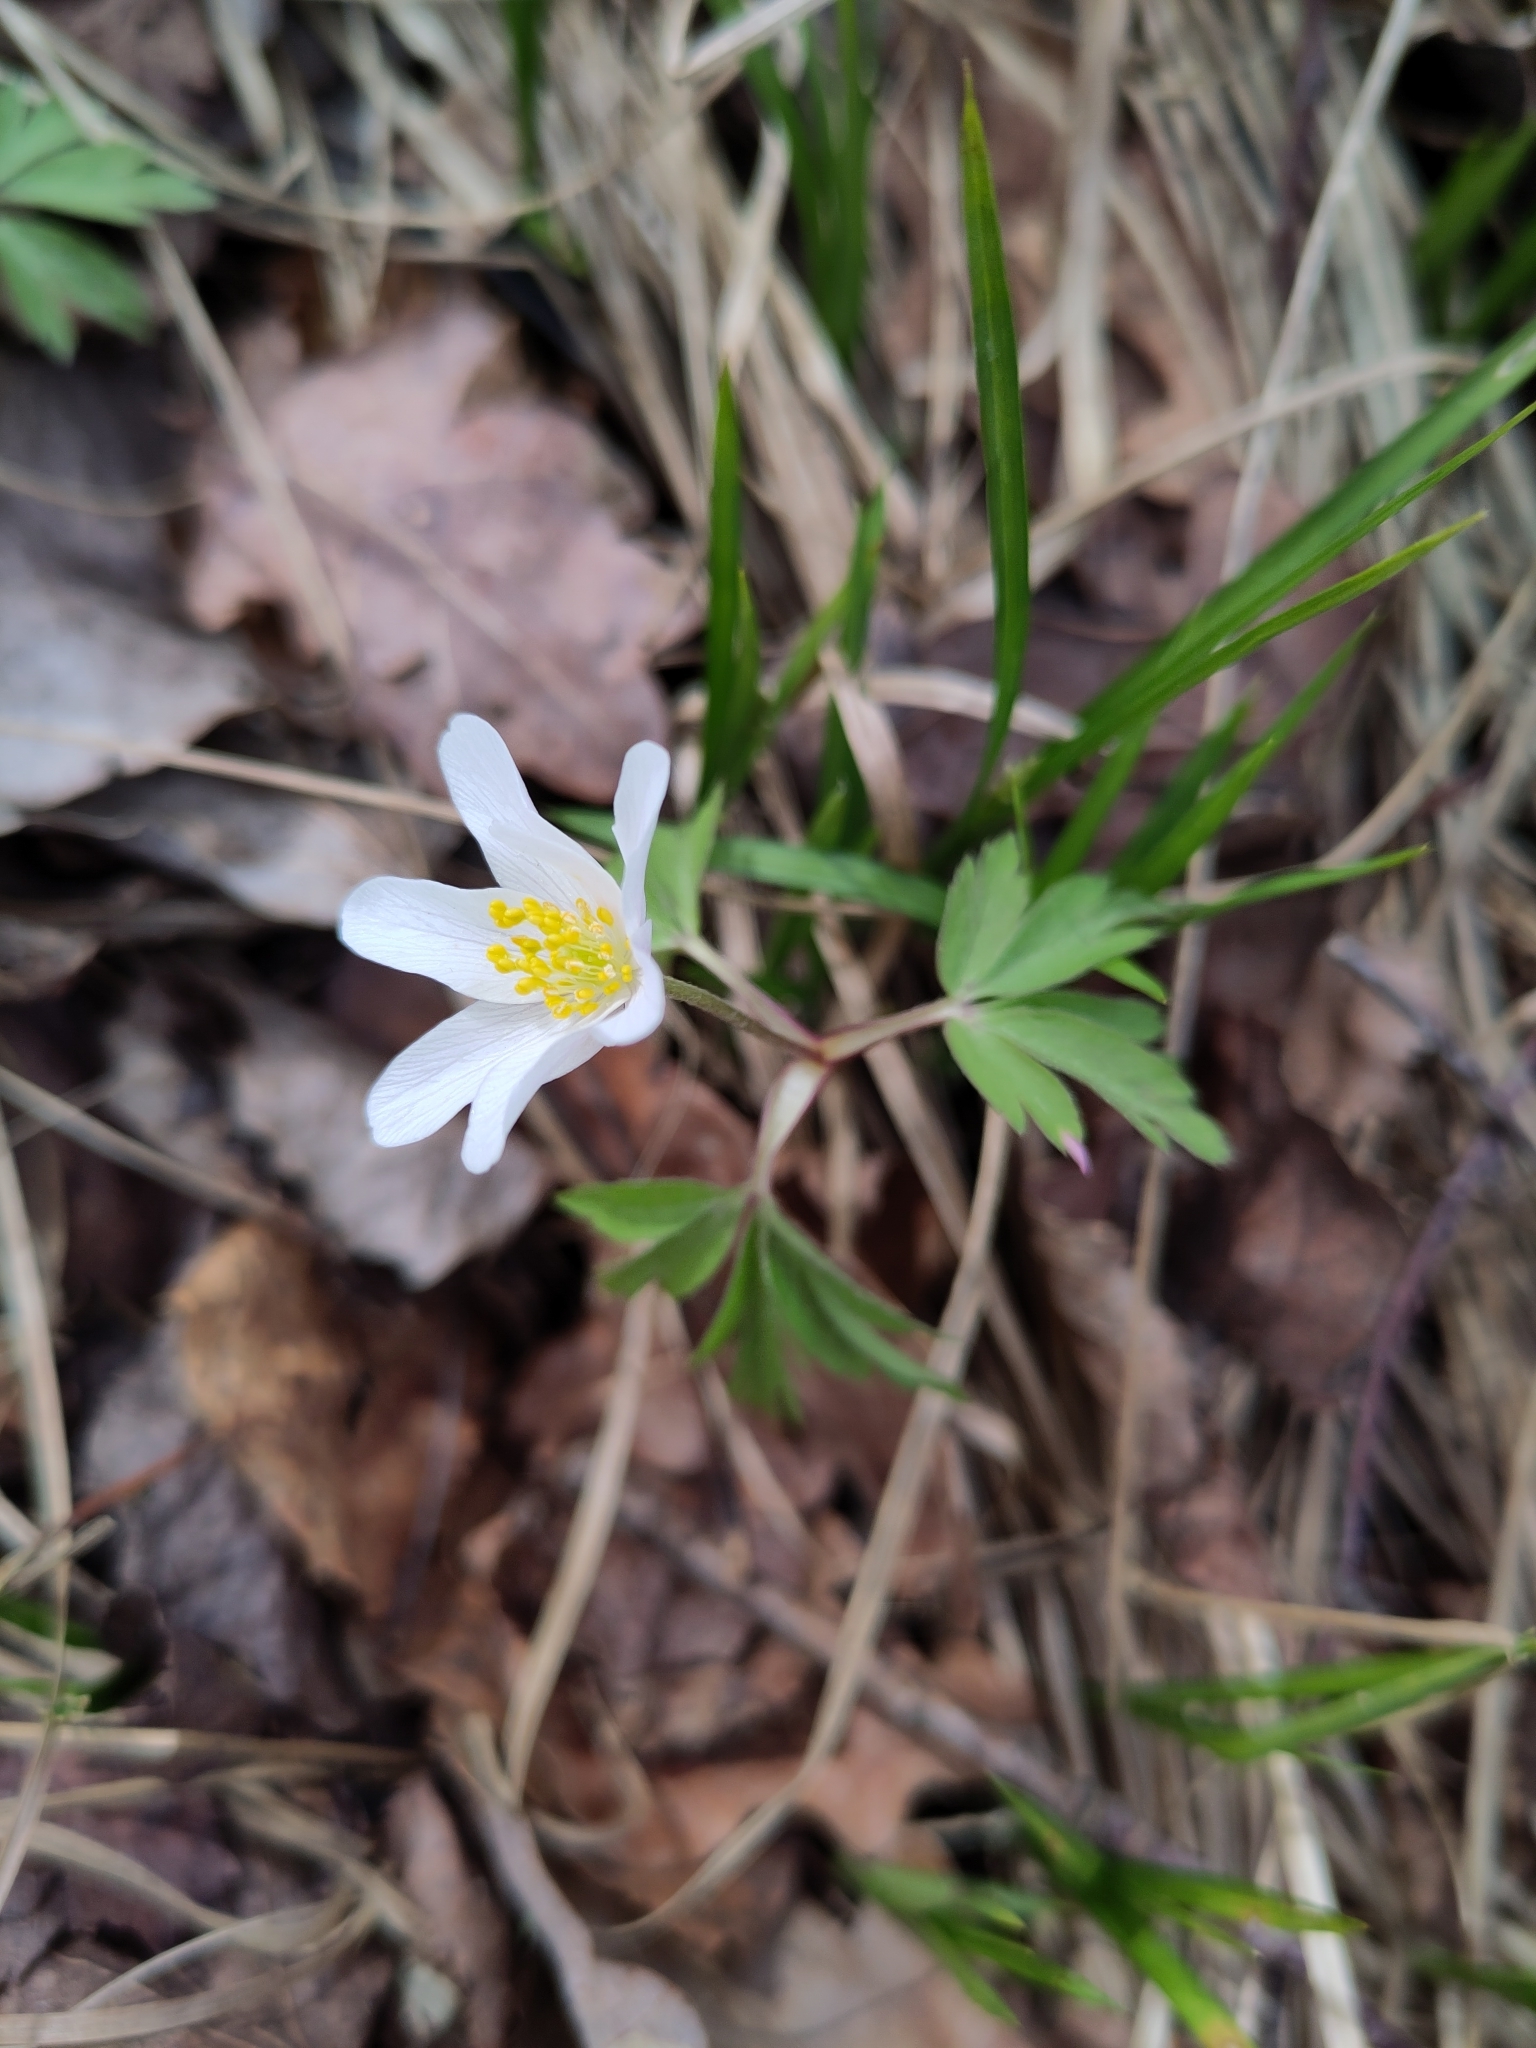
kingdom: Plantae
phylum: Tracheophyta
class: Magnoliopsida
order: Ranunculales
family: Ranunculaceae
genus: Anemone
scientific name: Anemone nemorosa
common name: Wood anemone
